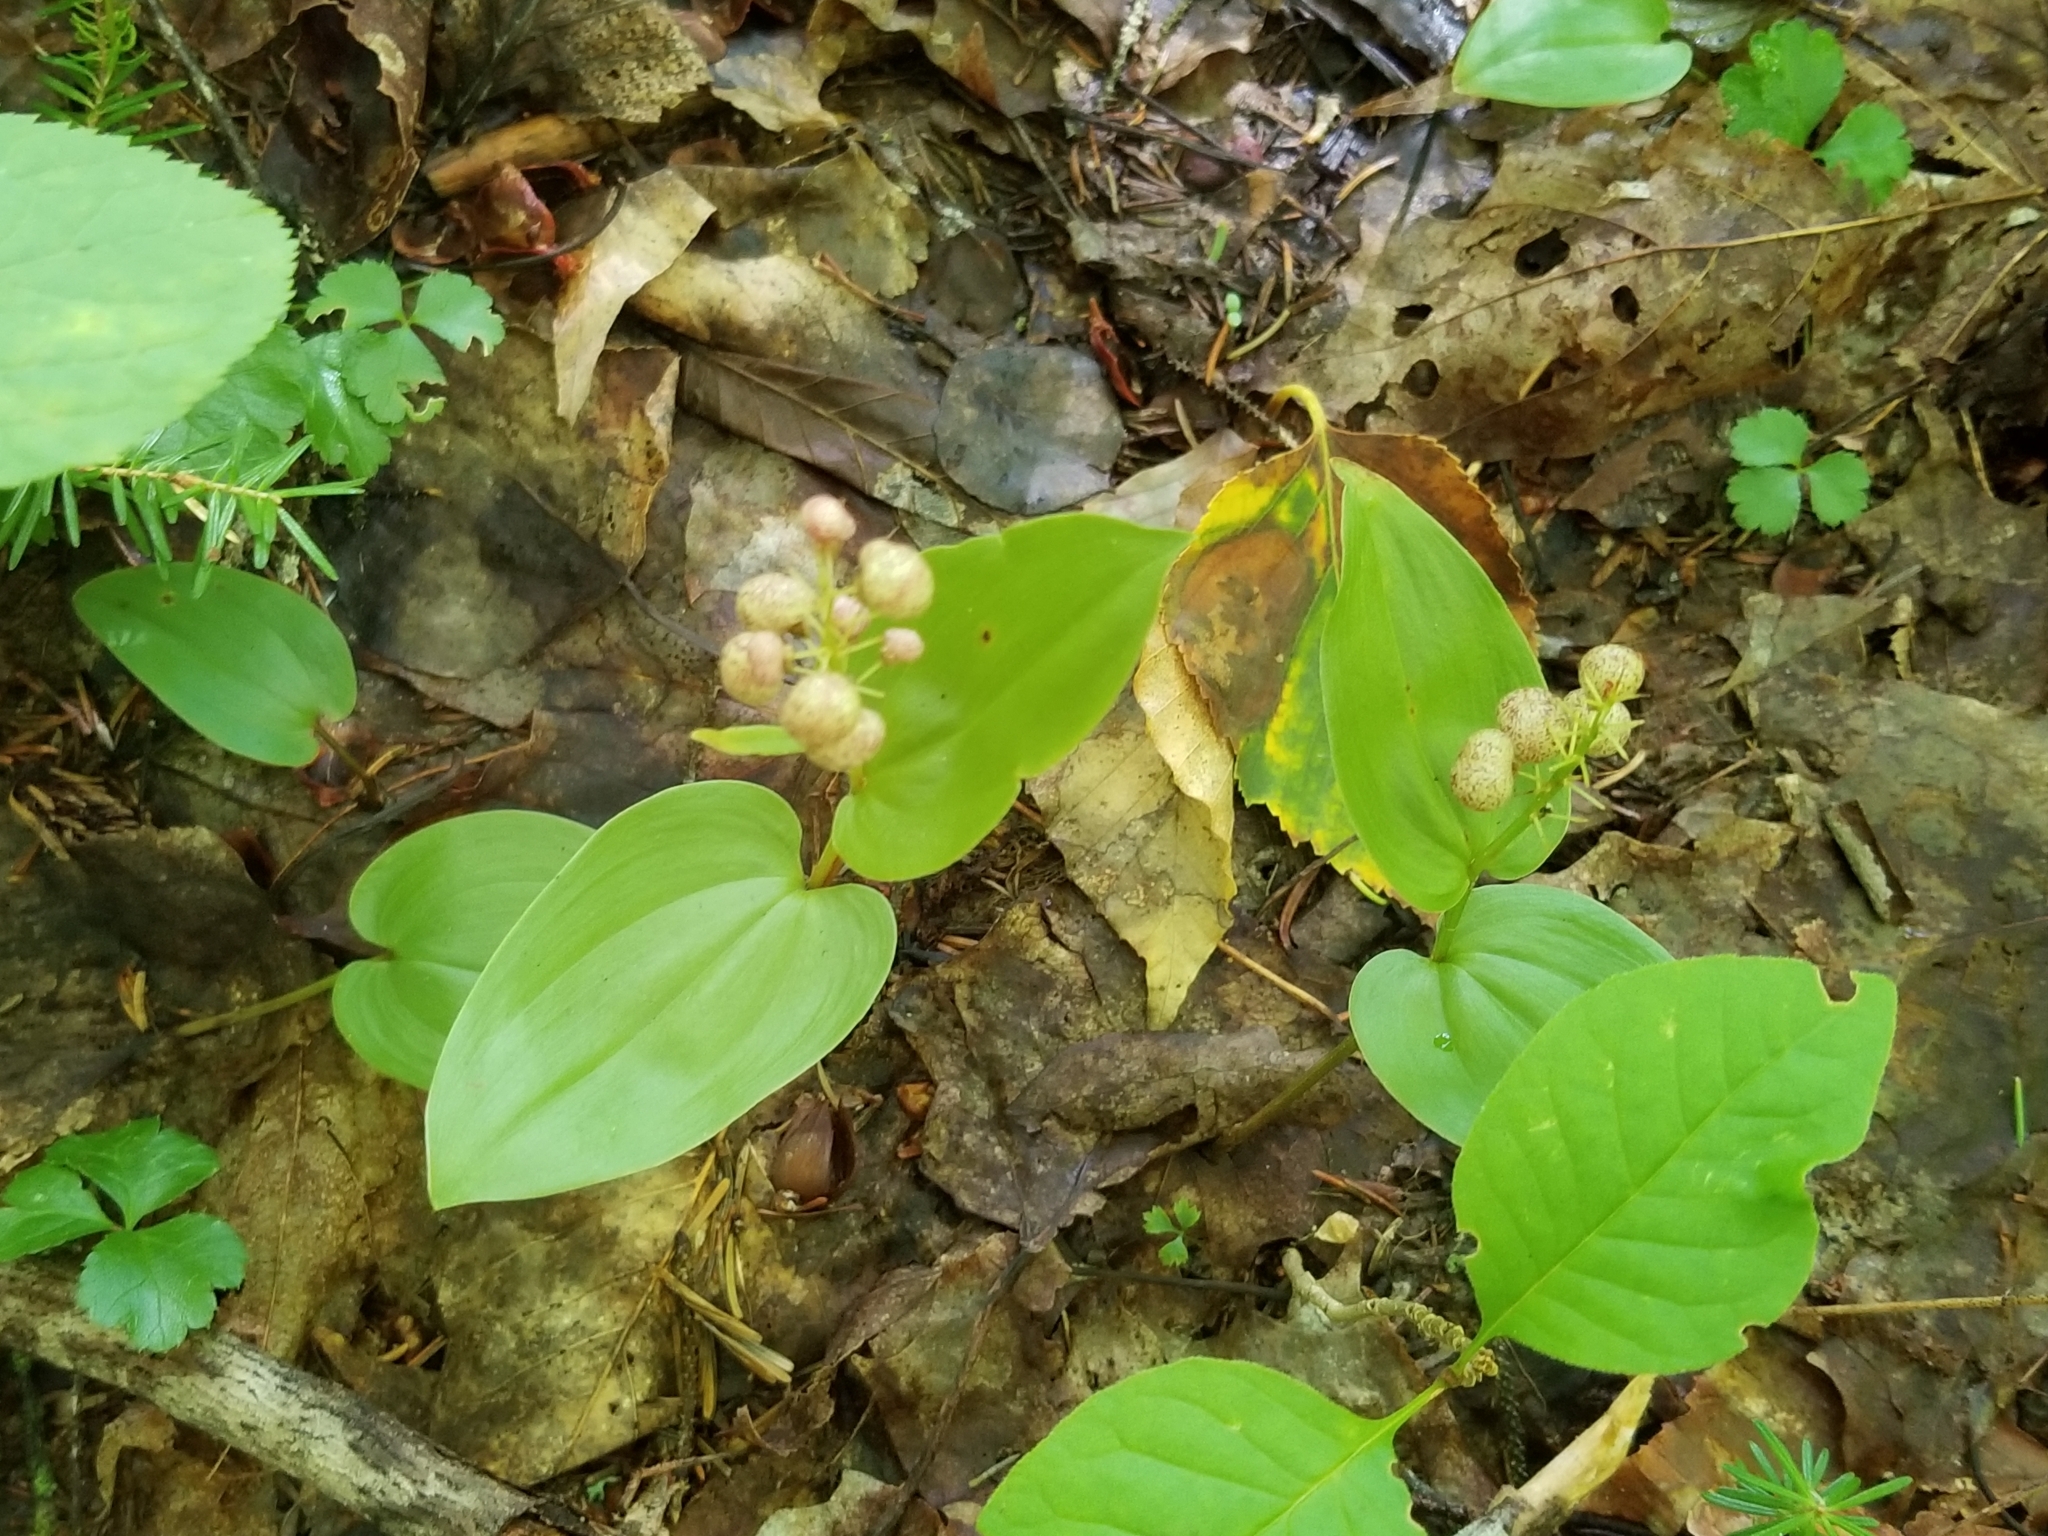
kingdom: Plantae
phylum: Tracheophyta
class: Liliopsida
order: Asparagales
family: Asparagaceae
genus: Maianthemum
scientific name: Maianthemum canadense
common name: False lily-of-the-valley
